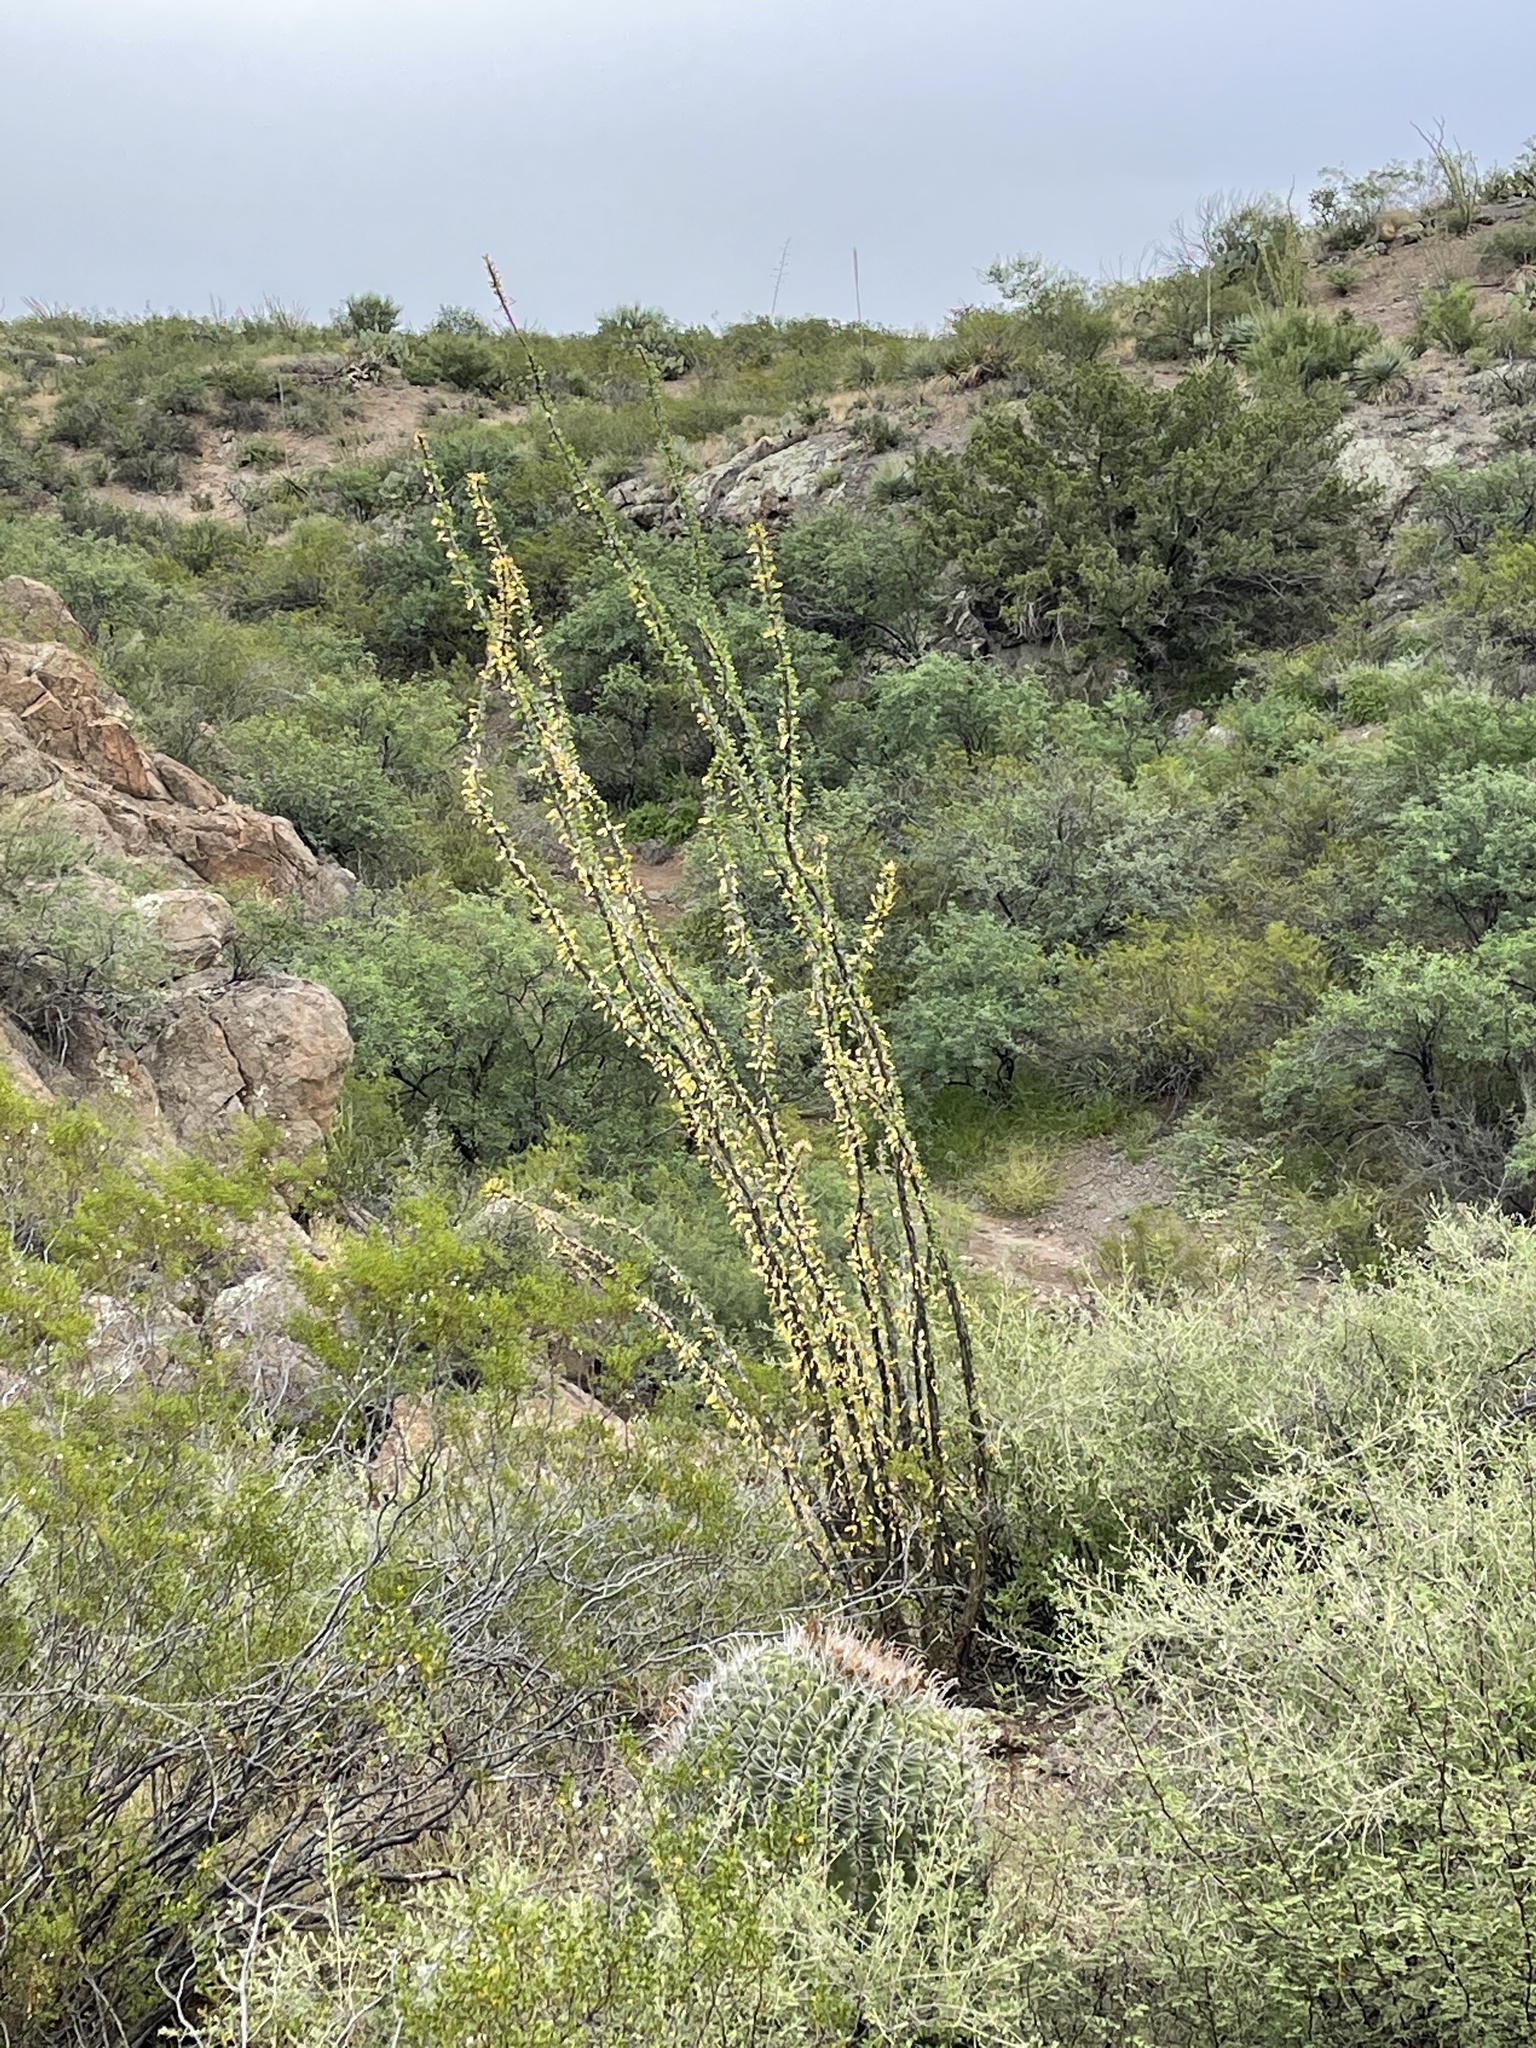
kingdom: Plantae
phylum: Tracheophyta
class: Magnoliopsida
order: Ericales
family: Fouquieriaceae
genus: Fouquieria
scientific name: Fouquieria splendens
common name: Vine-cactus
